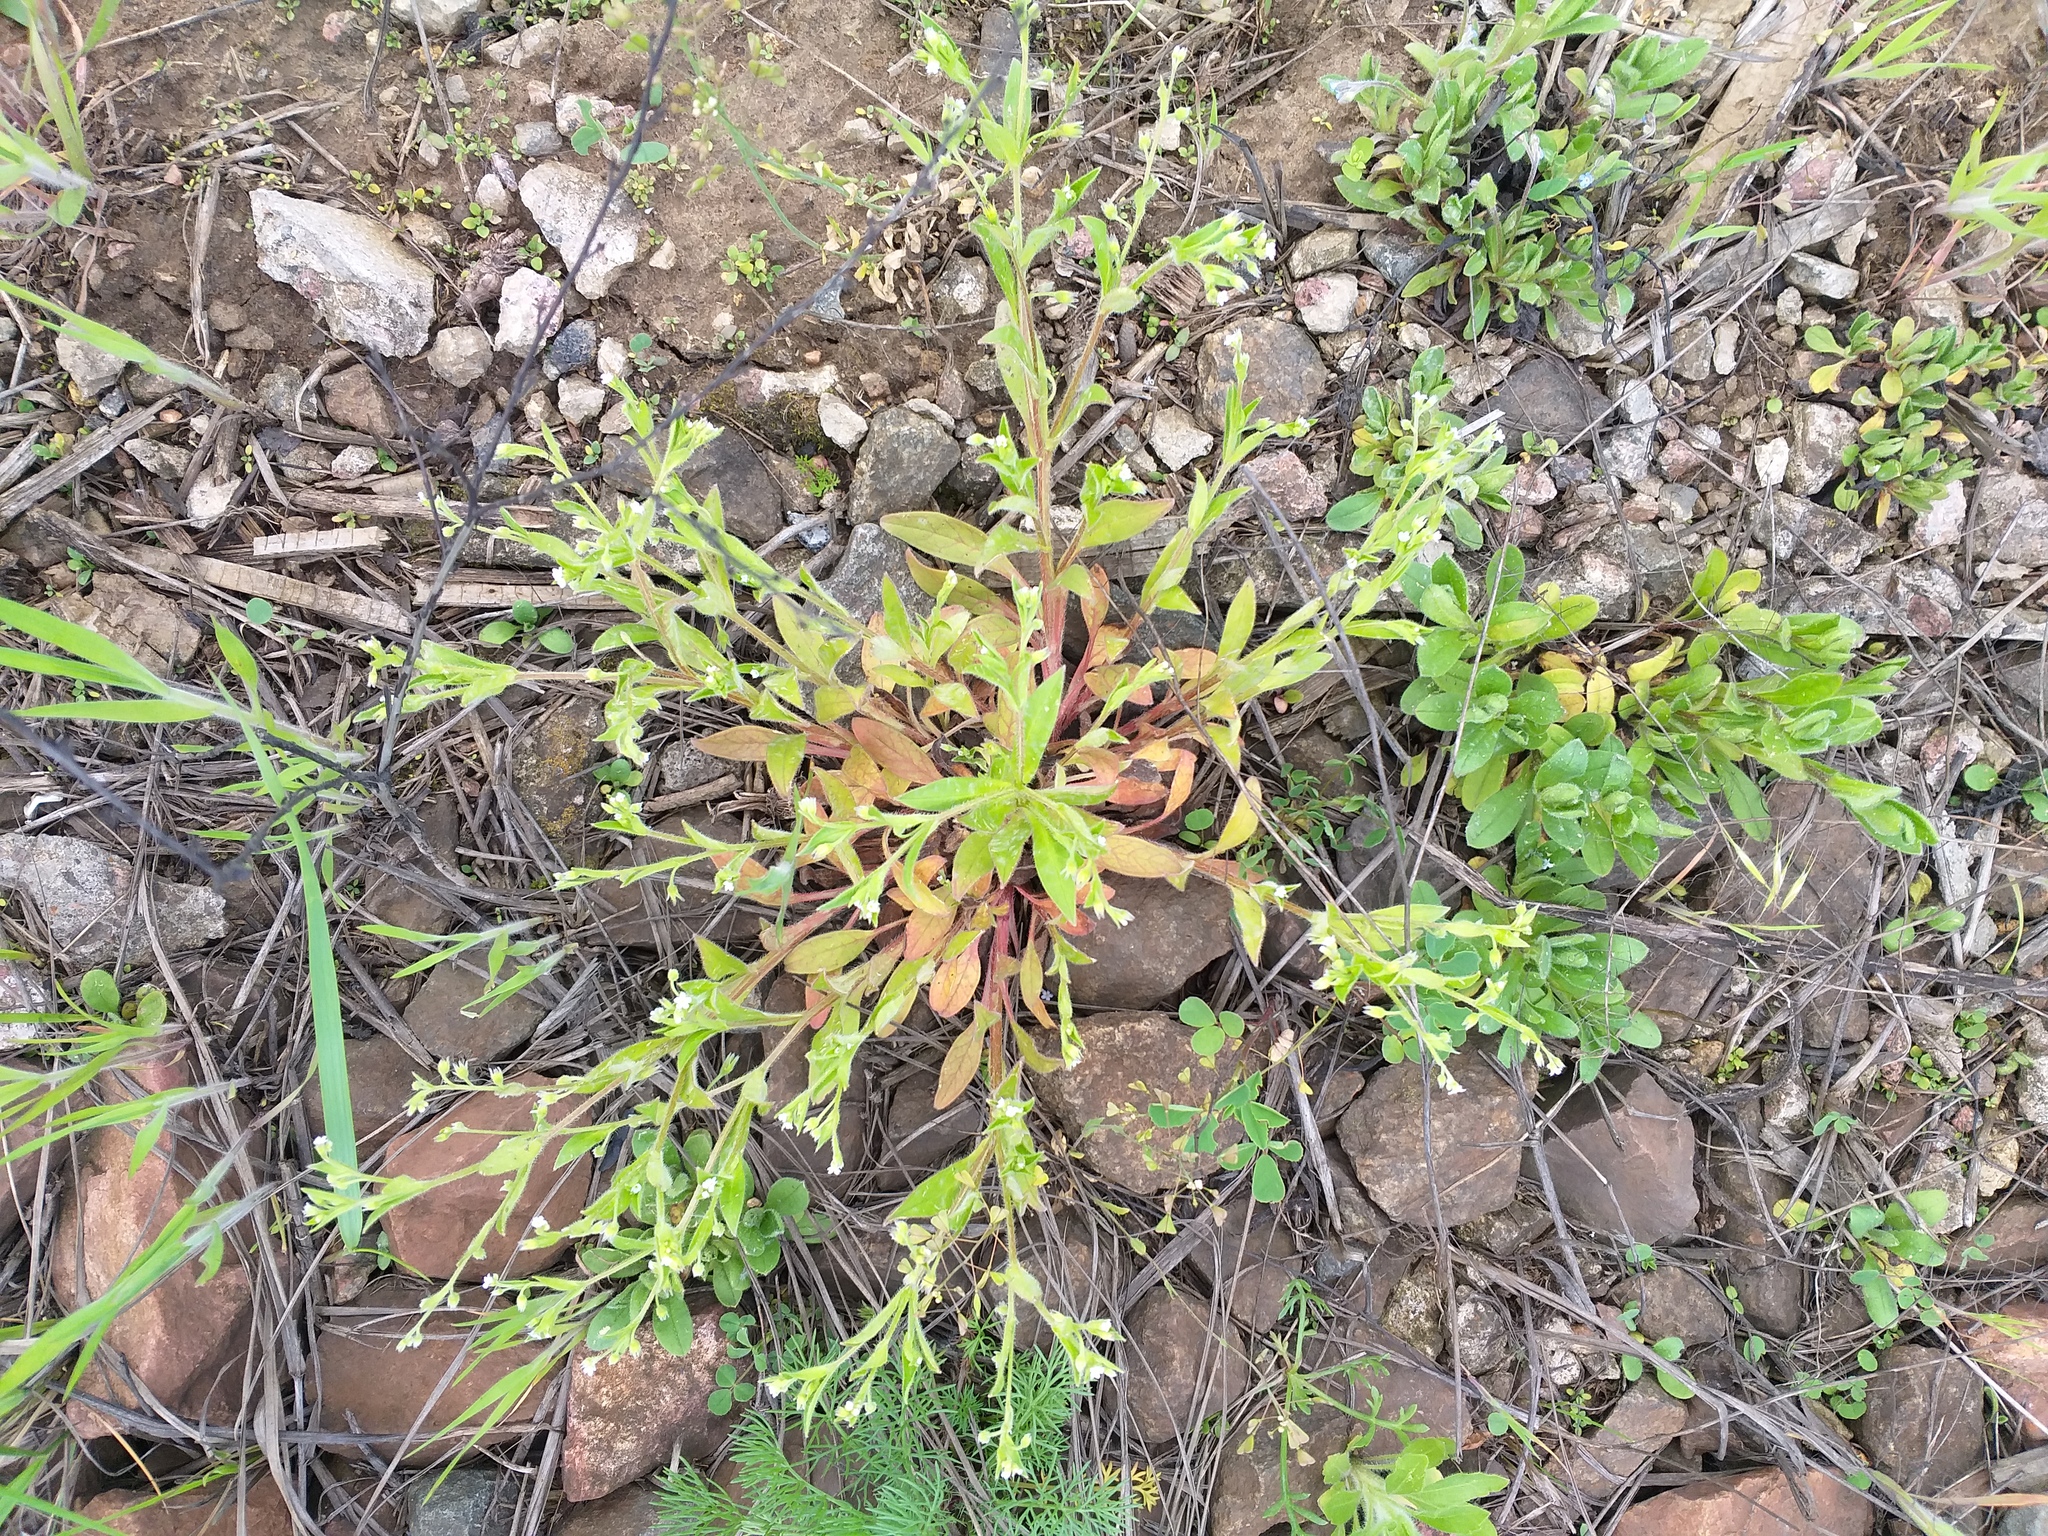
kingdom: Plantae
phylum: Tracheophyta
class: Magnoliopsida
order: Boraginales
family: Boraginaceae
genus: Myosotis
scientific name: Myosotis sparsiflora
